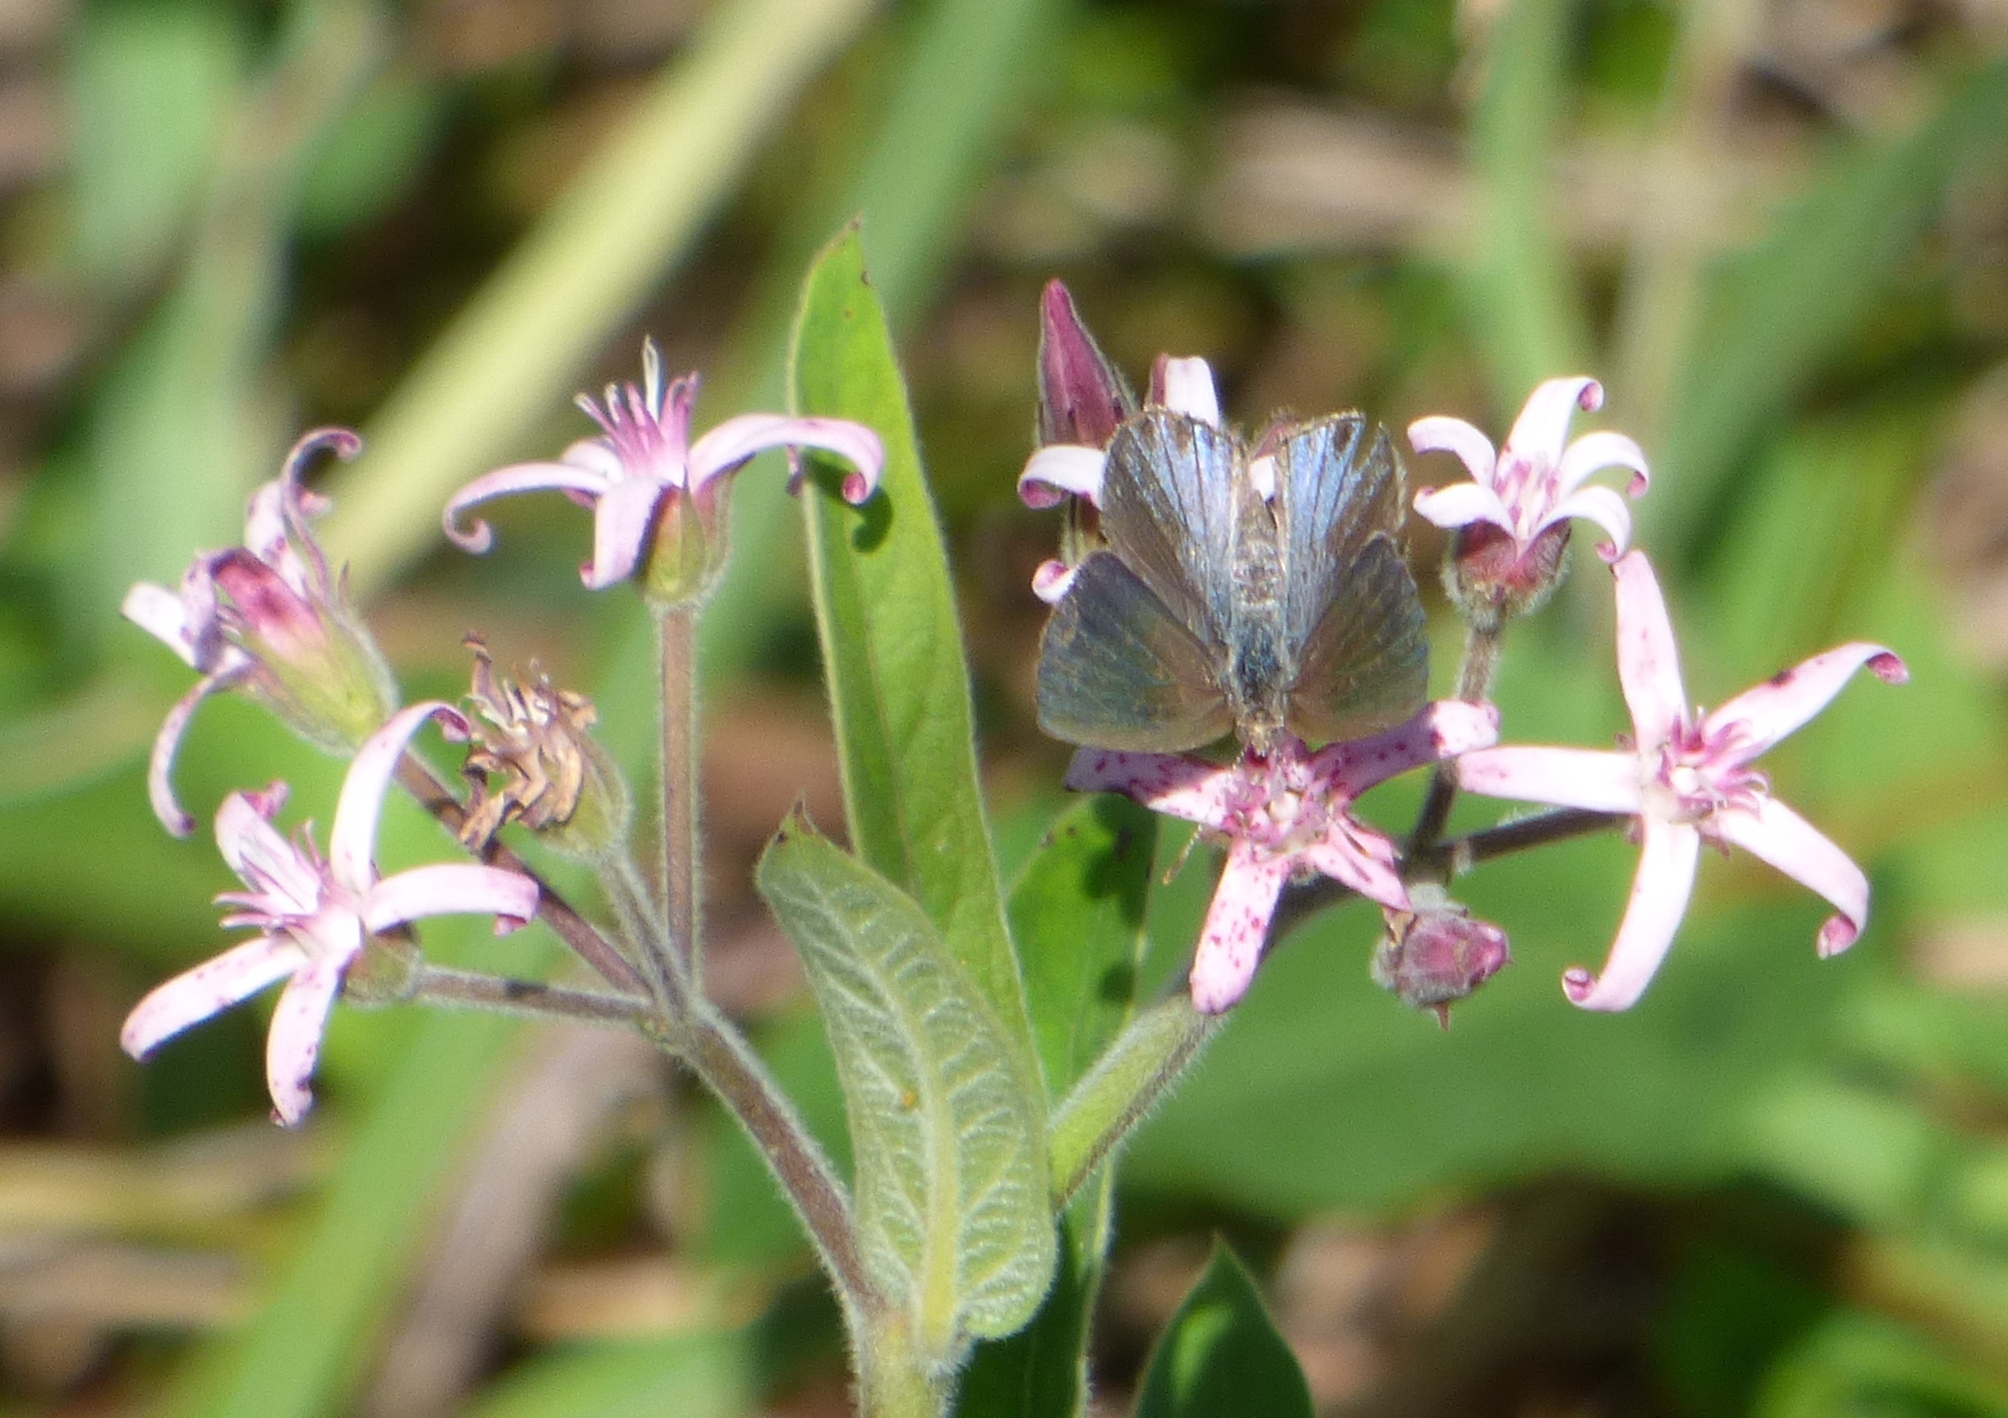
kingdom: Animalia
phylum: Arthropoda
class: Insecta
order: Lepidoptera
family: Lycaenidae
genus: Strymon
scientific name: Strymon bazochii
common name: Lantana scrub-hairstreak
